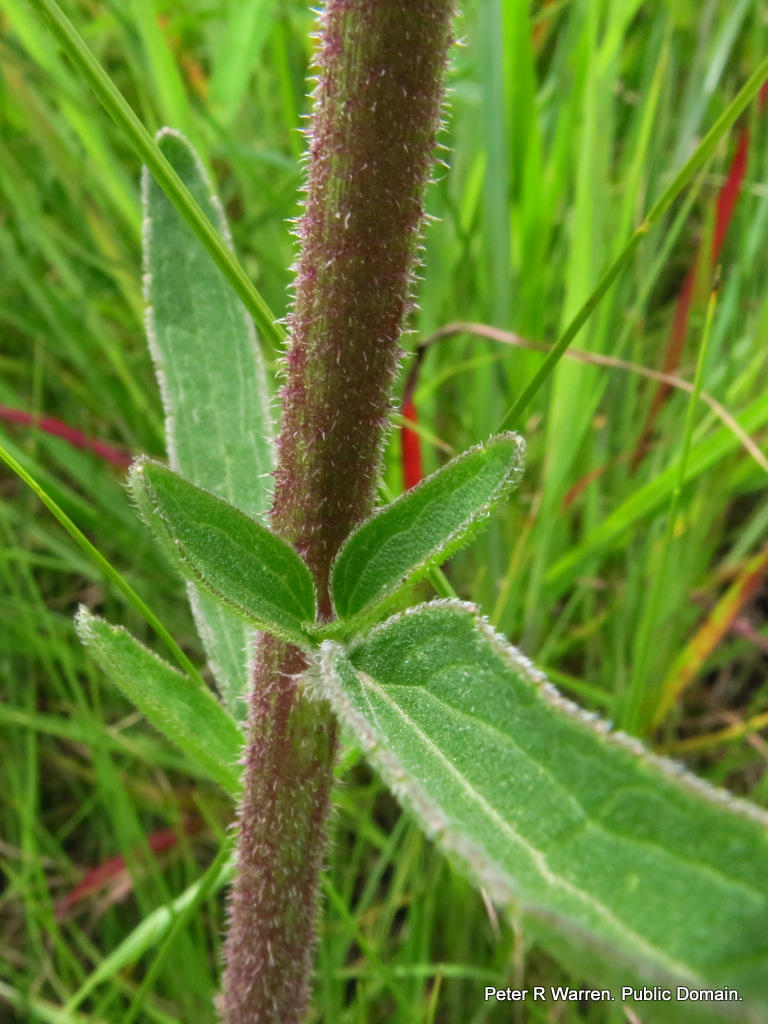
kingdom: Plantae
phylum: Tracheophyta
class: Magnoliopsida
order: Asterales
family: Asteraceae
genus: Campuloclinium
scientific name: Campuloclinium macrocephalum
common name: Pompomweed
